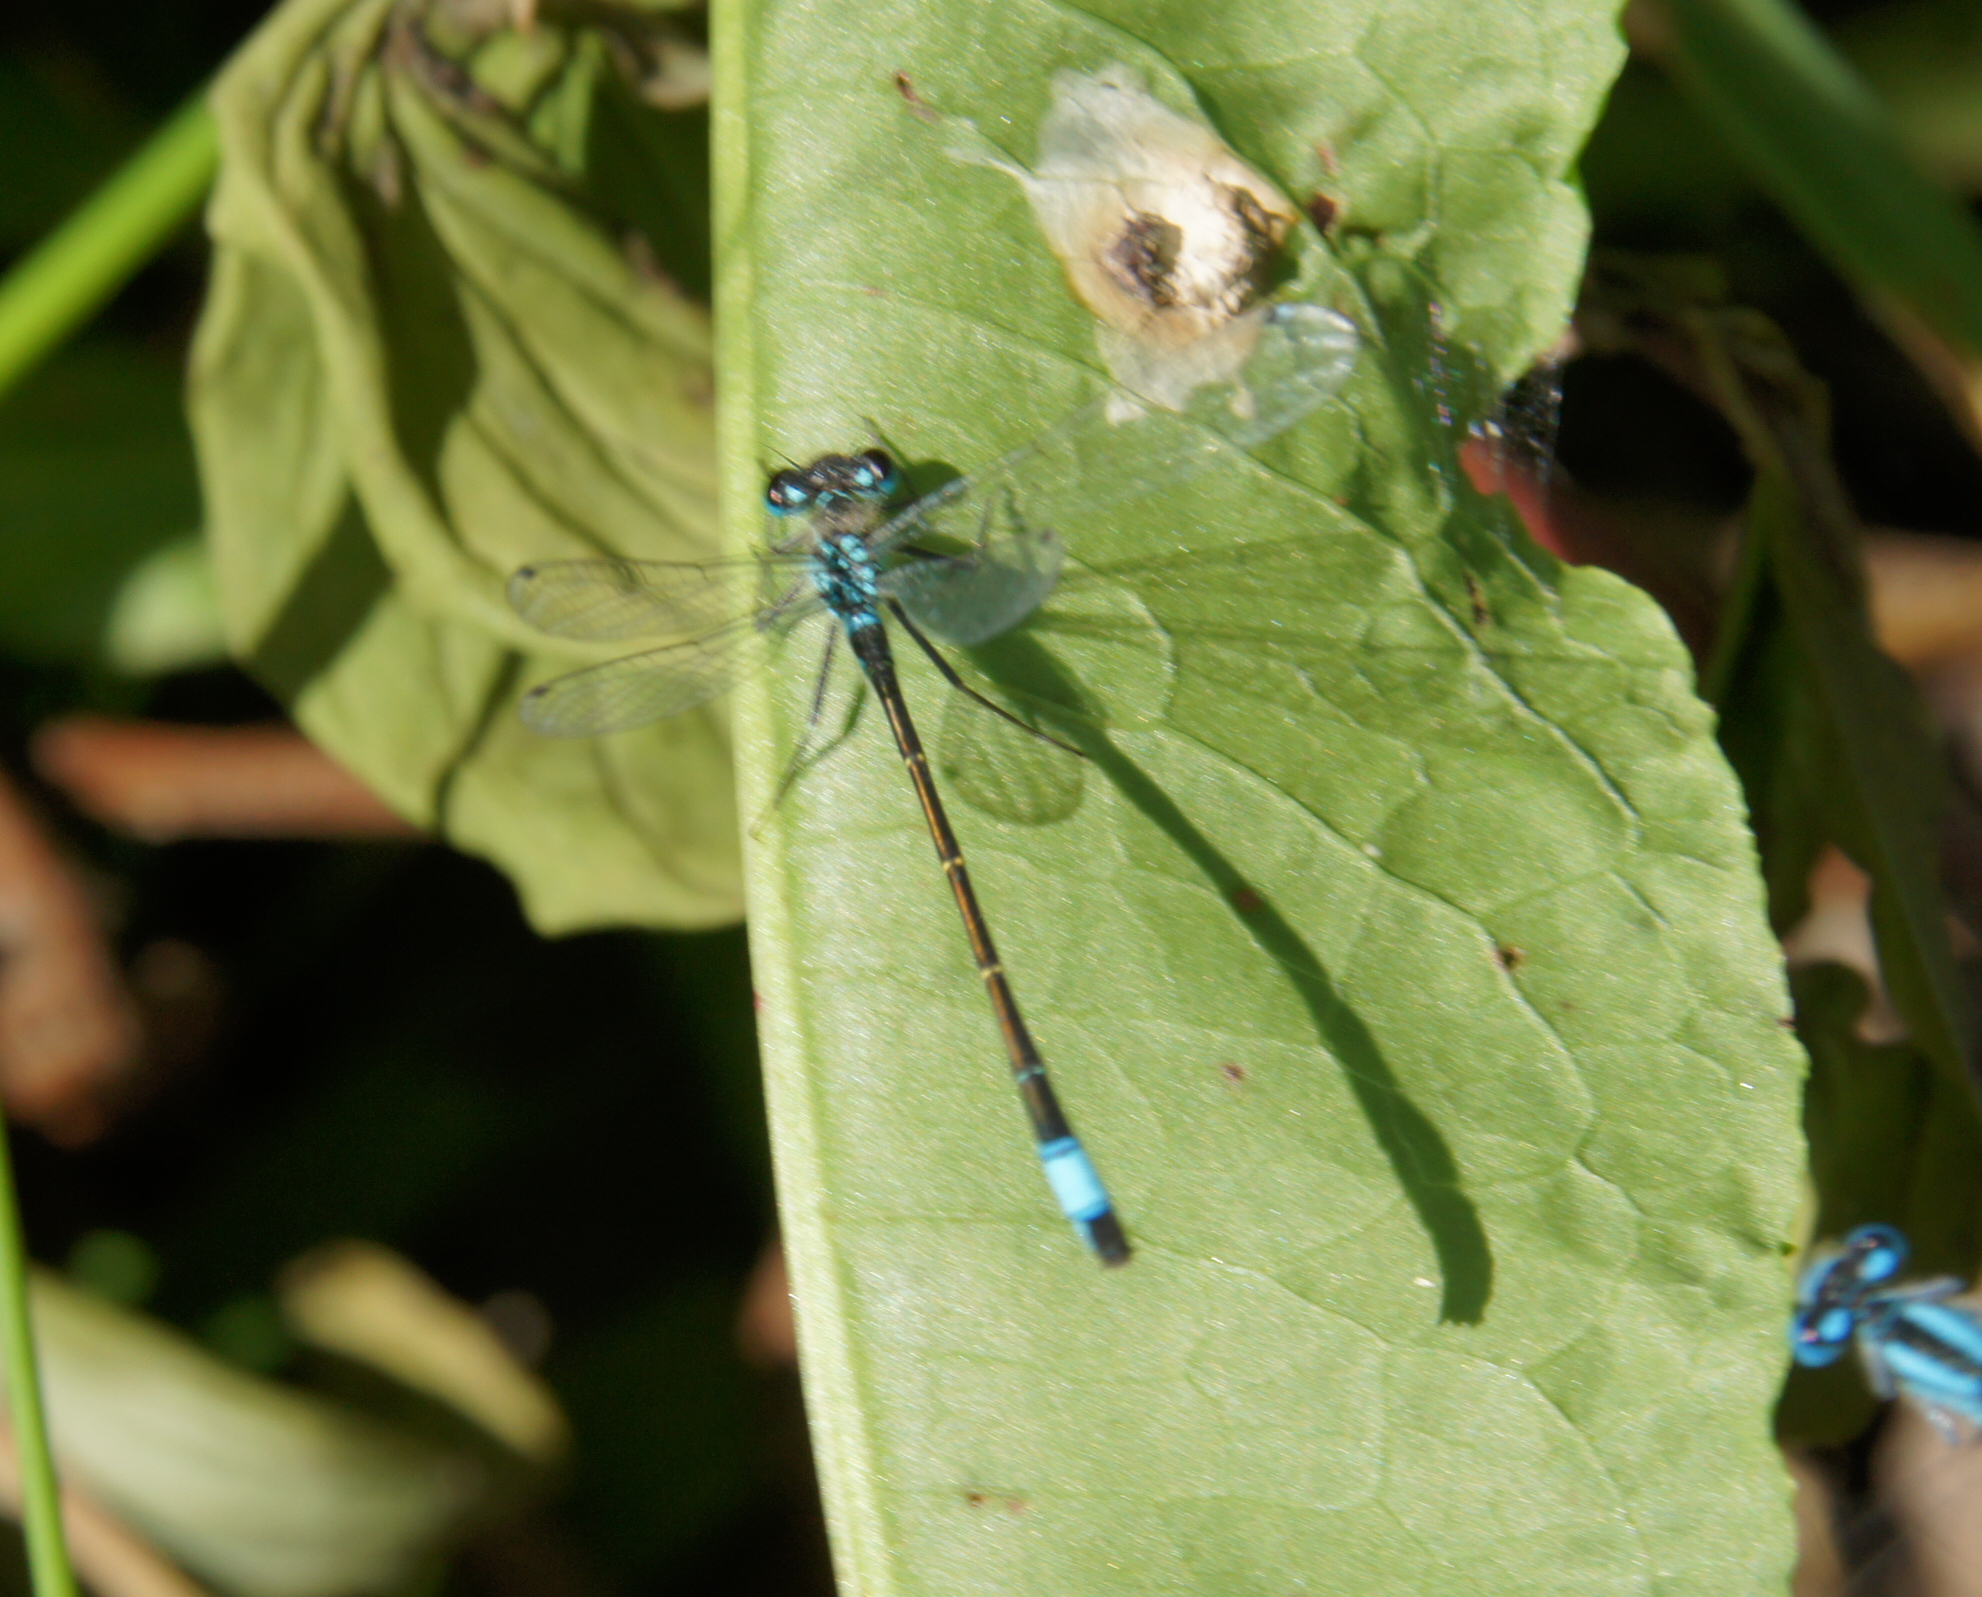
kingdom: Animalia
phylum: Arthropoda
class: Insecta
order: Odonata
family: Coenagrionidae
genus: Ischnura
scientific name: Ischnura elegans
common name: Blue-tailed damselfly
